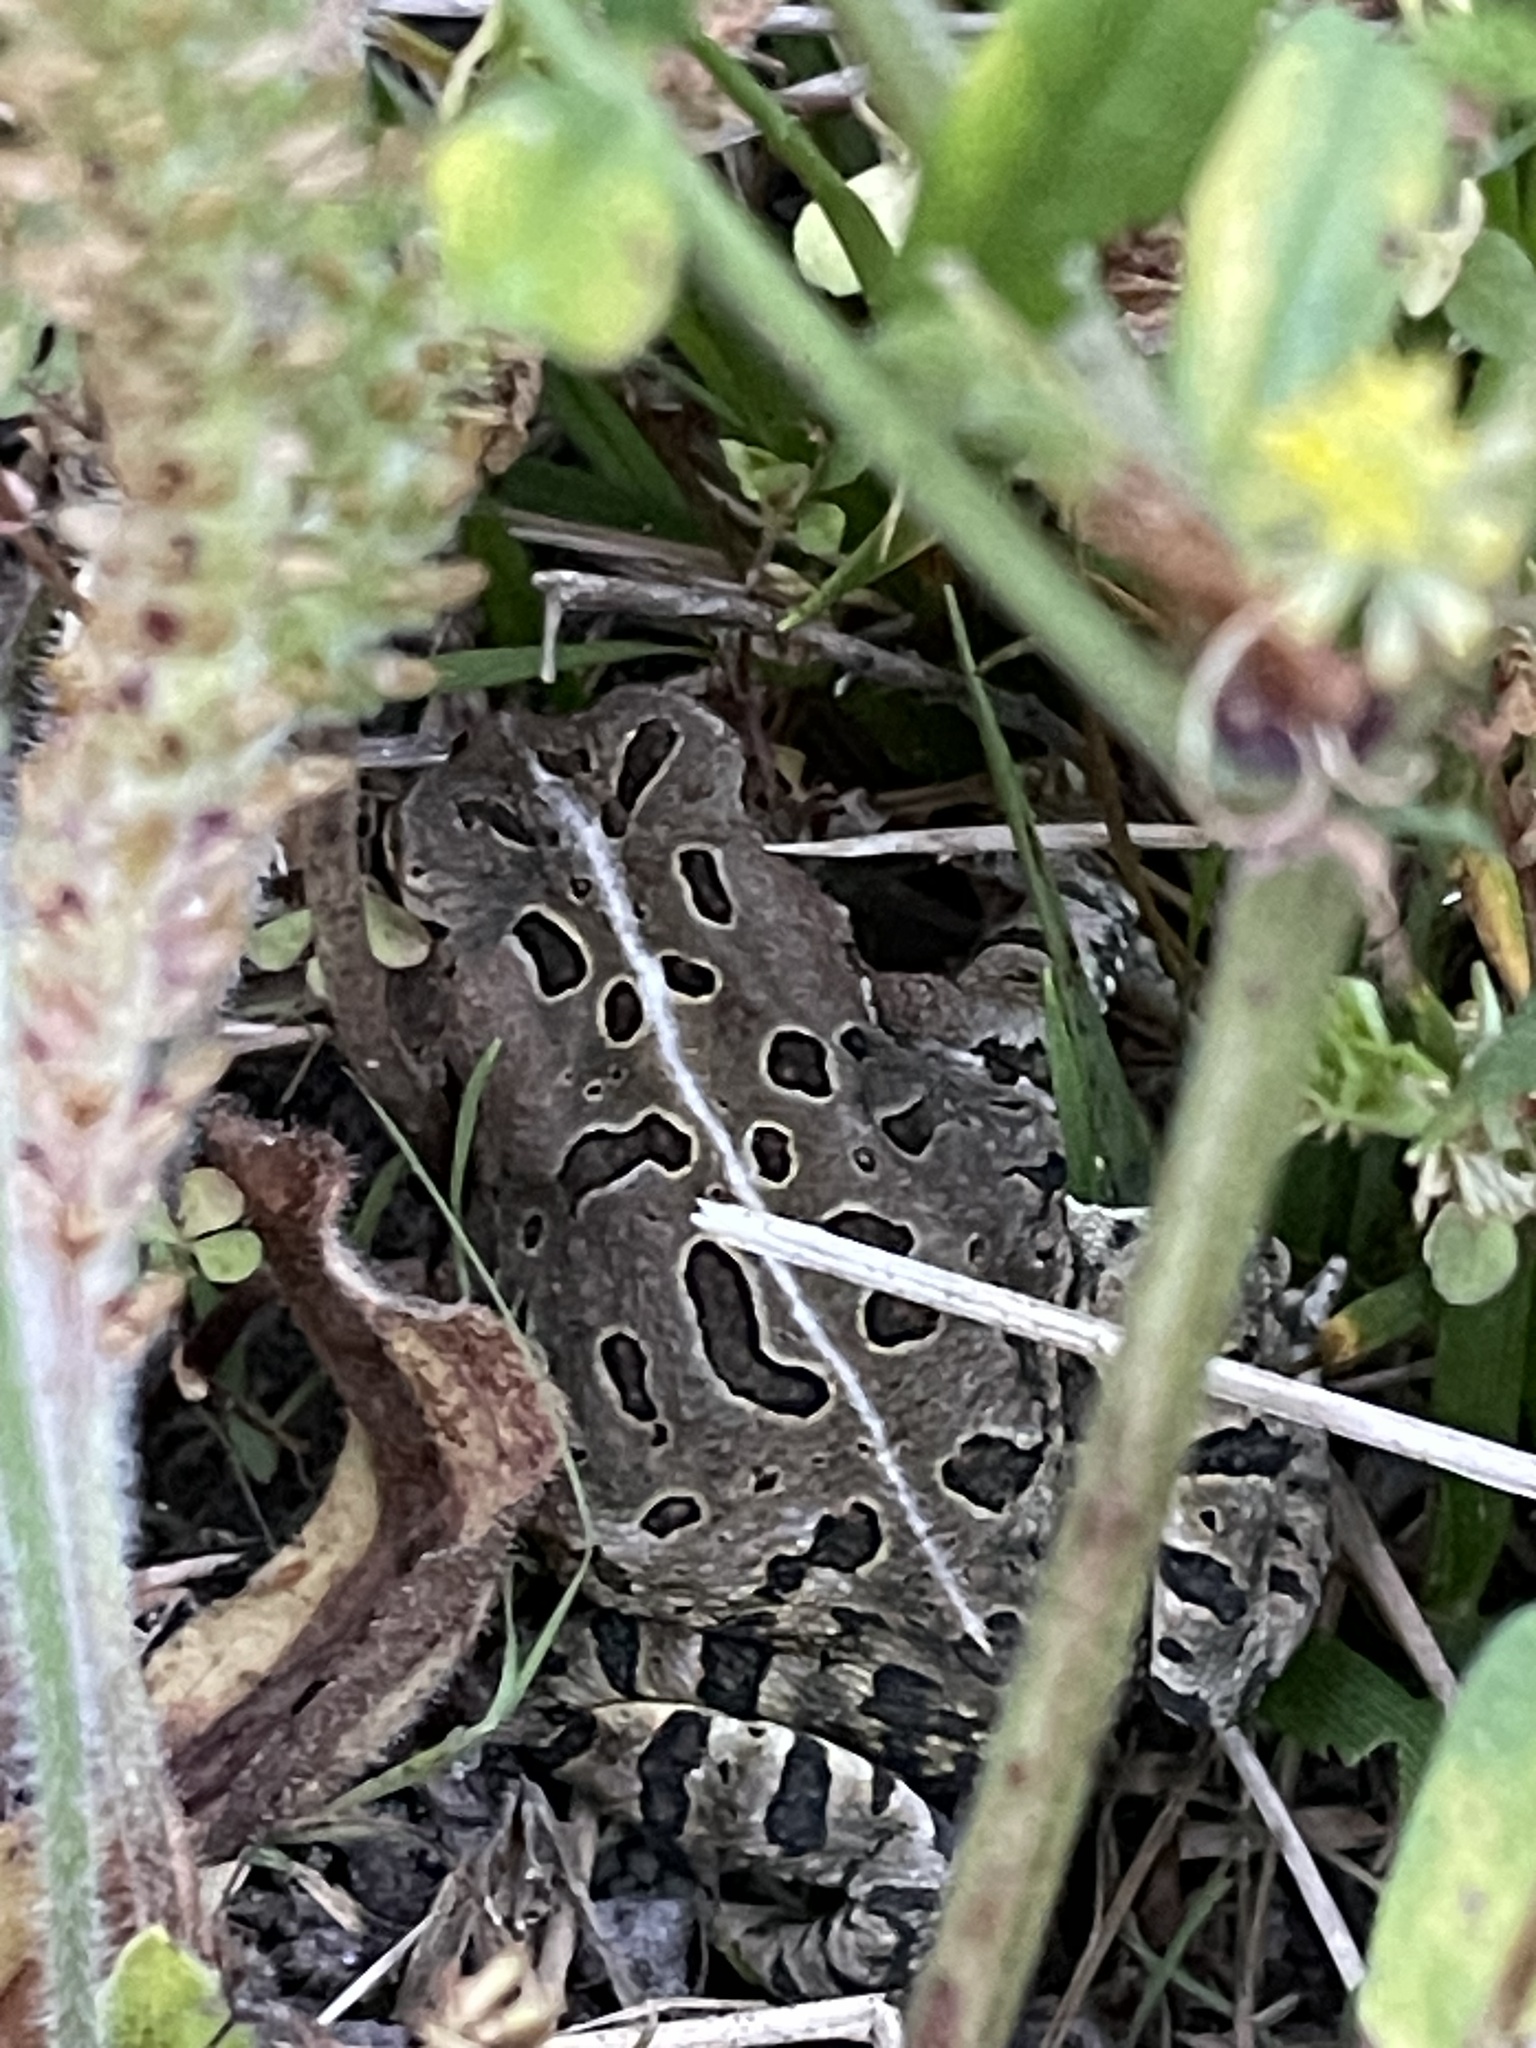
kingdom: Animalia
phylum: Chordata
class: Amphibia
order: Anura
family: Bufonidae
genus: Anaxyrus
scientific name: Anaxyrus fowleri
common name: Fowler's toad
